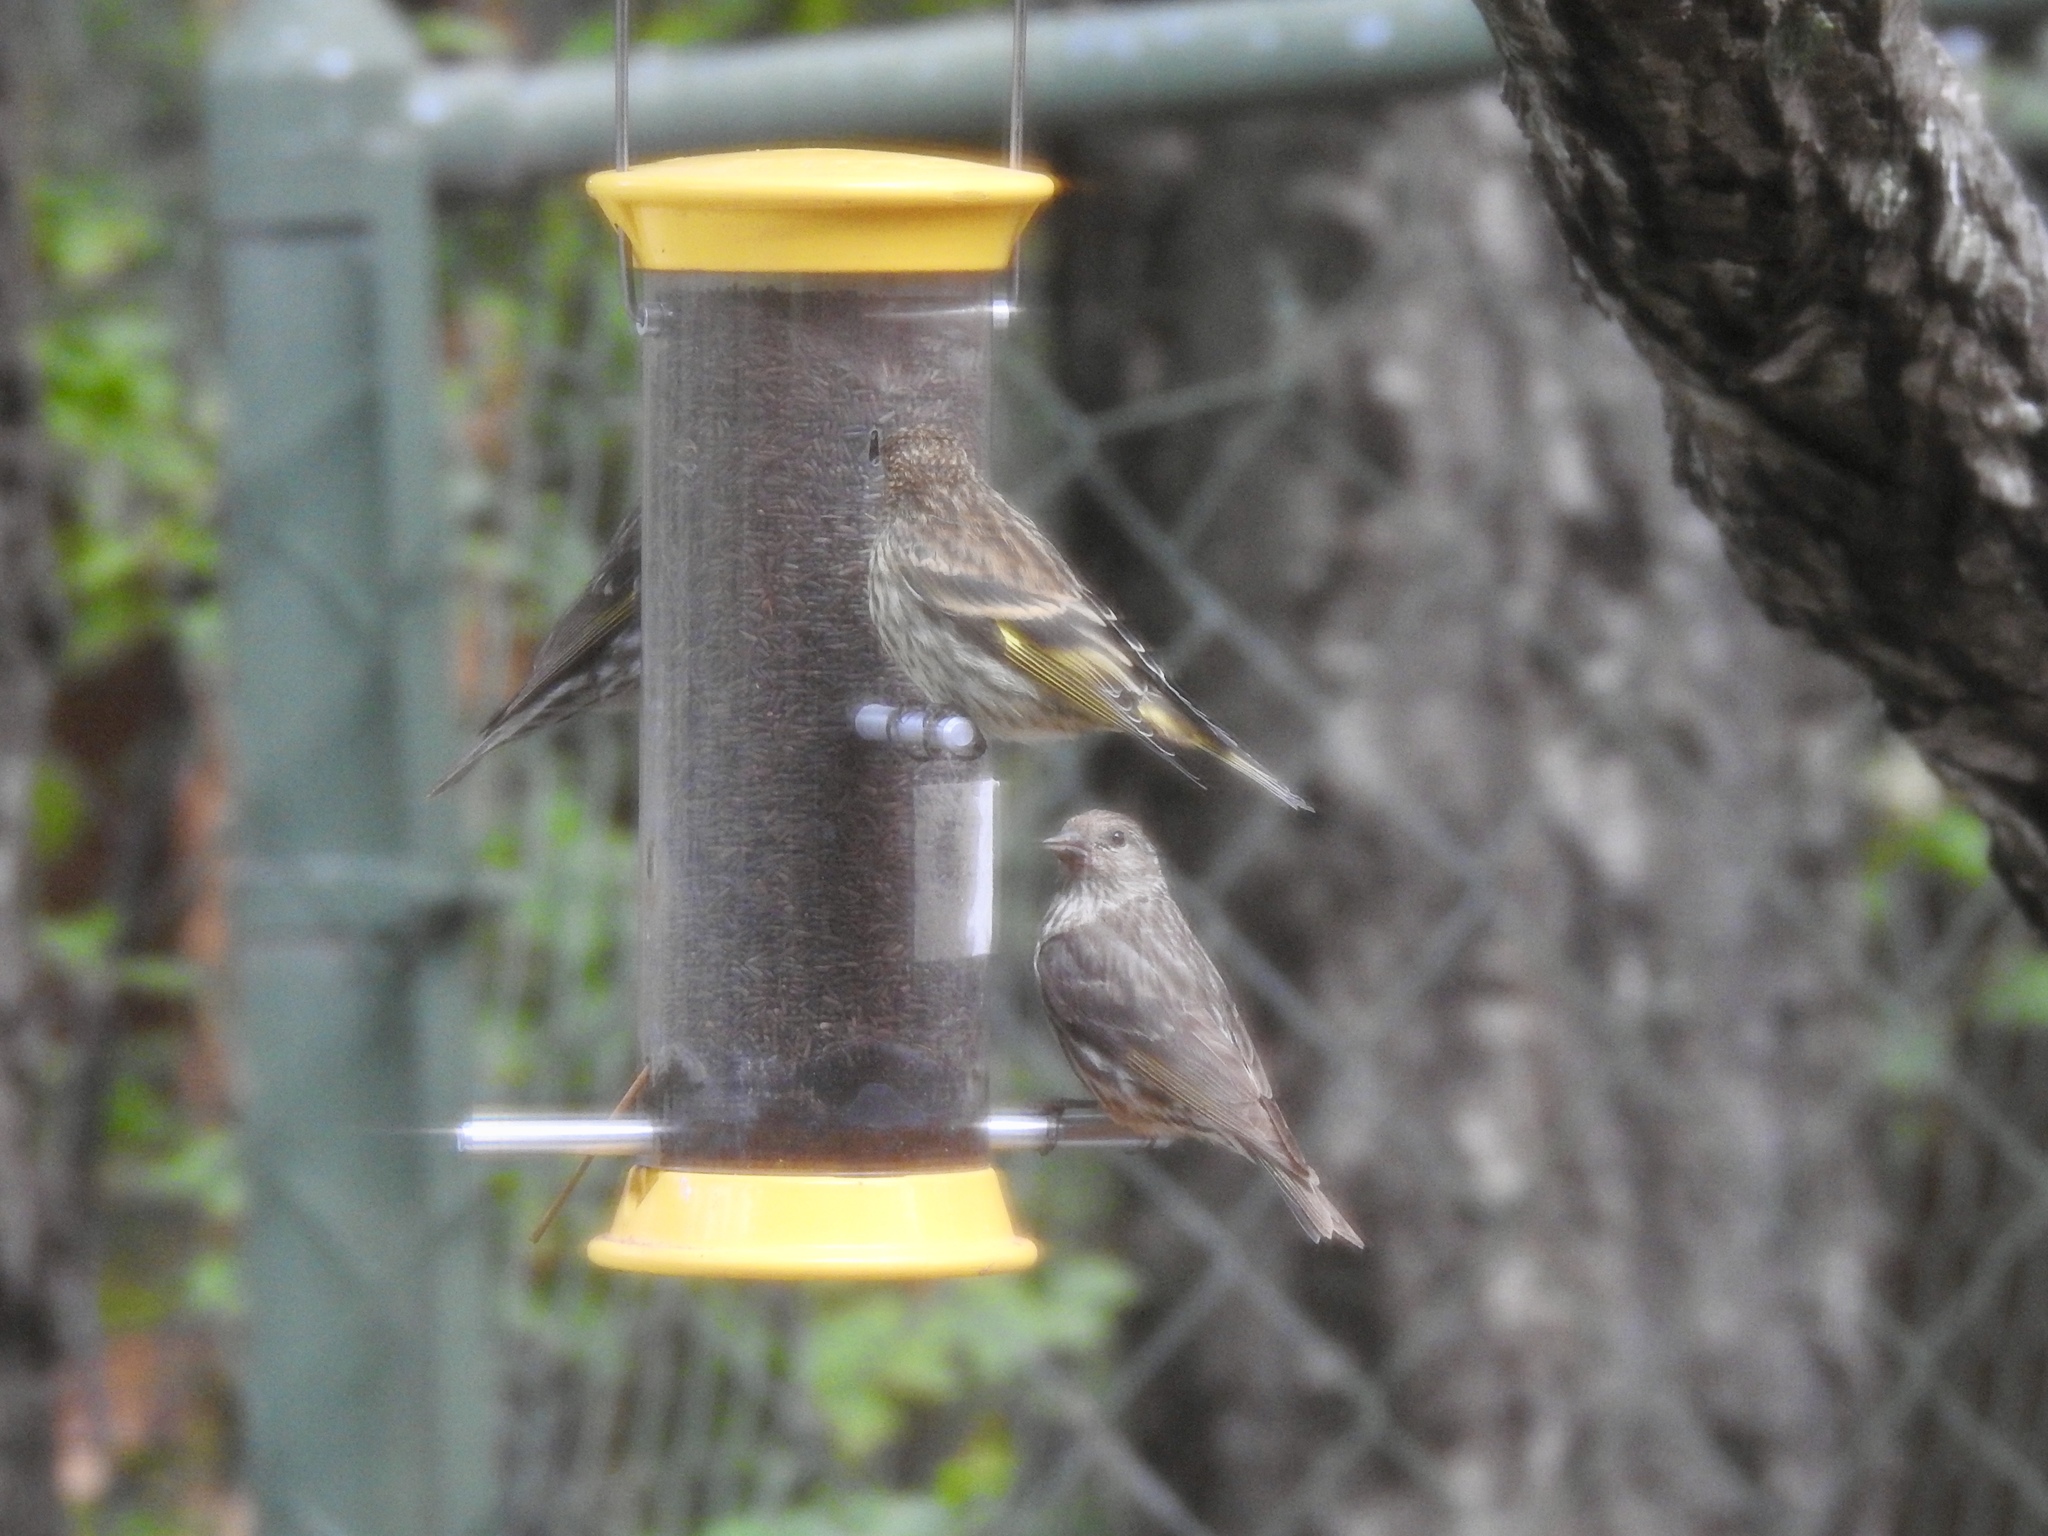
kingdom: Animalia
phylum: Chordata
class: Aves
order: Passeriformes
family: Fringillidae
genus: Spinus
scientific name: Spinus pinus
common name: Pine siskin
